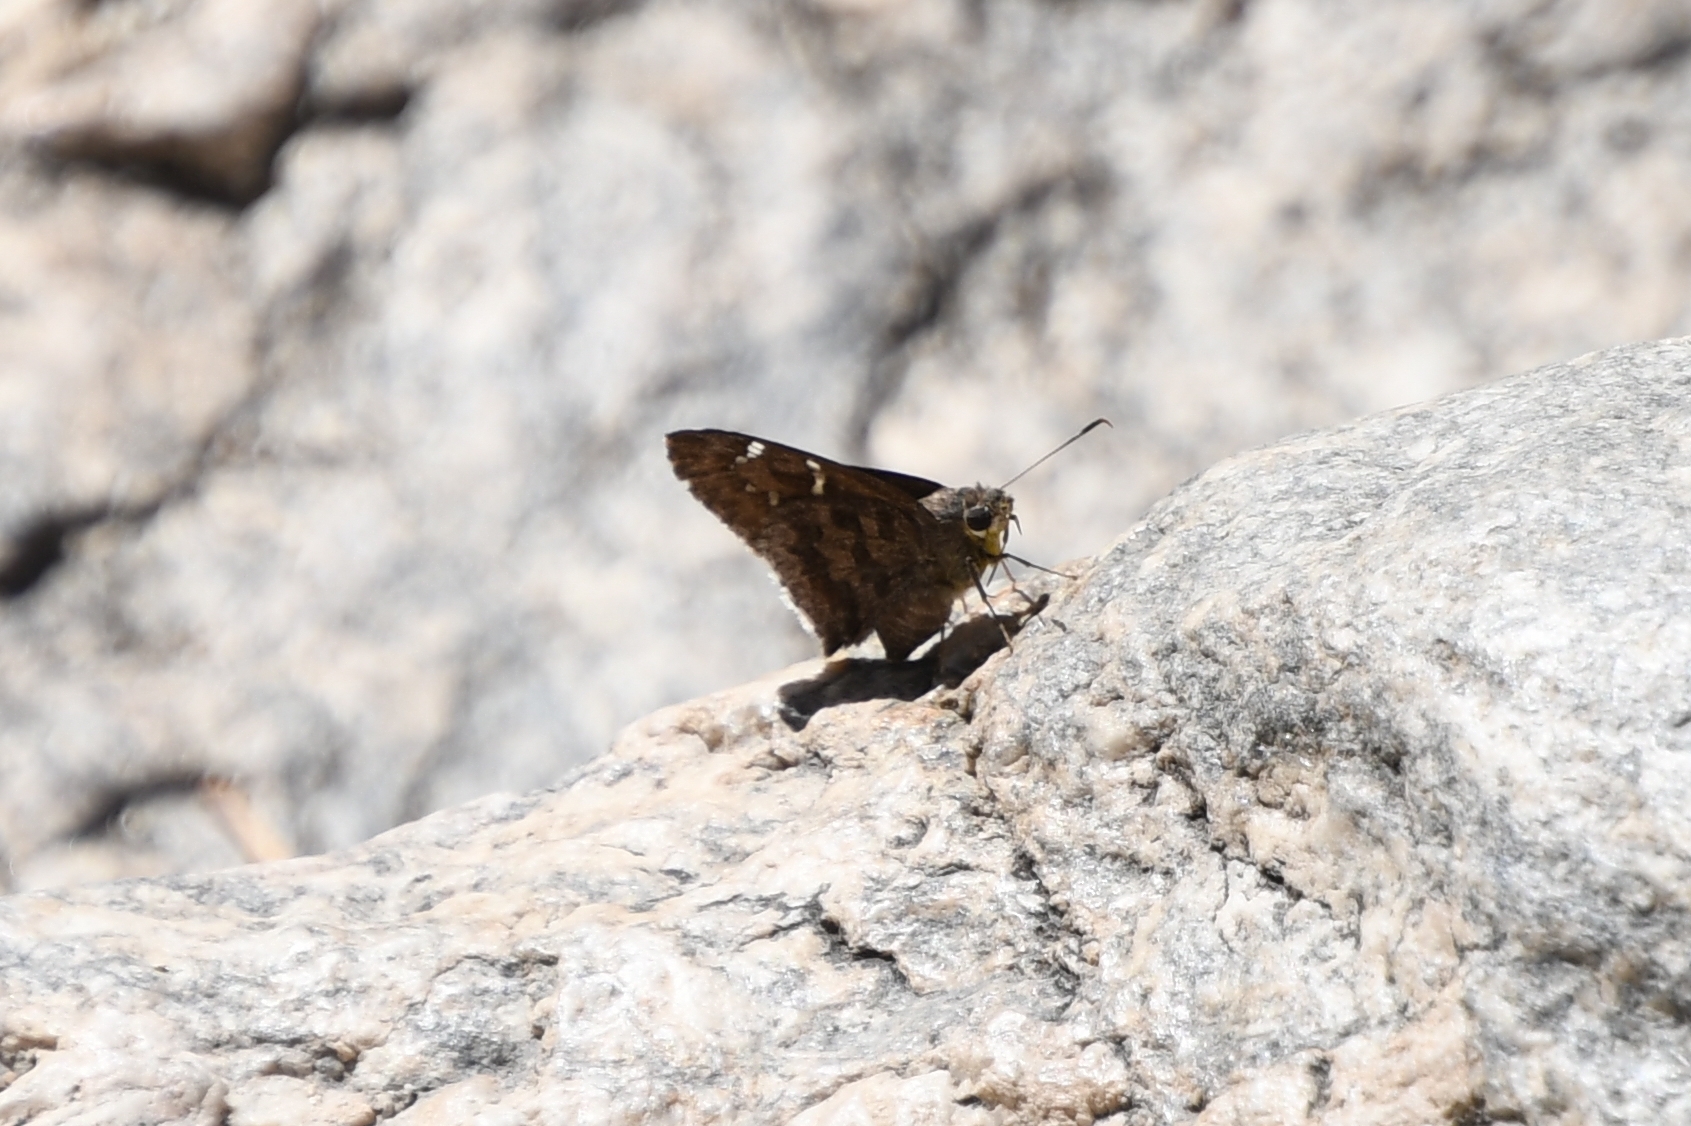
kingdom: Animalia
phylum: Arthropoda
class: Insecta
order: Lepidoptera
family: Hesperiidae
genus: Cogia
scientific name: Cogia hippalus
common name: Acacia skipper
